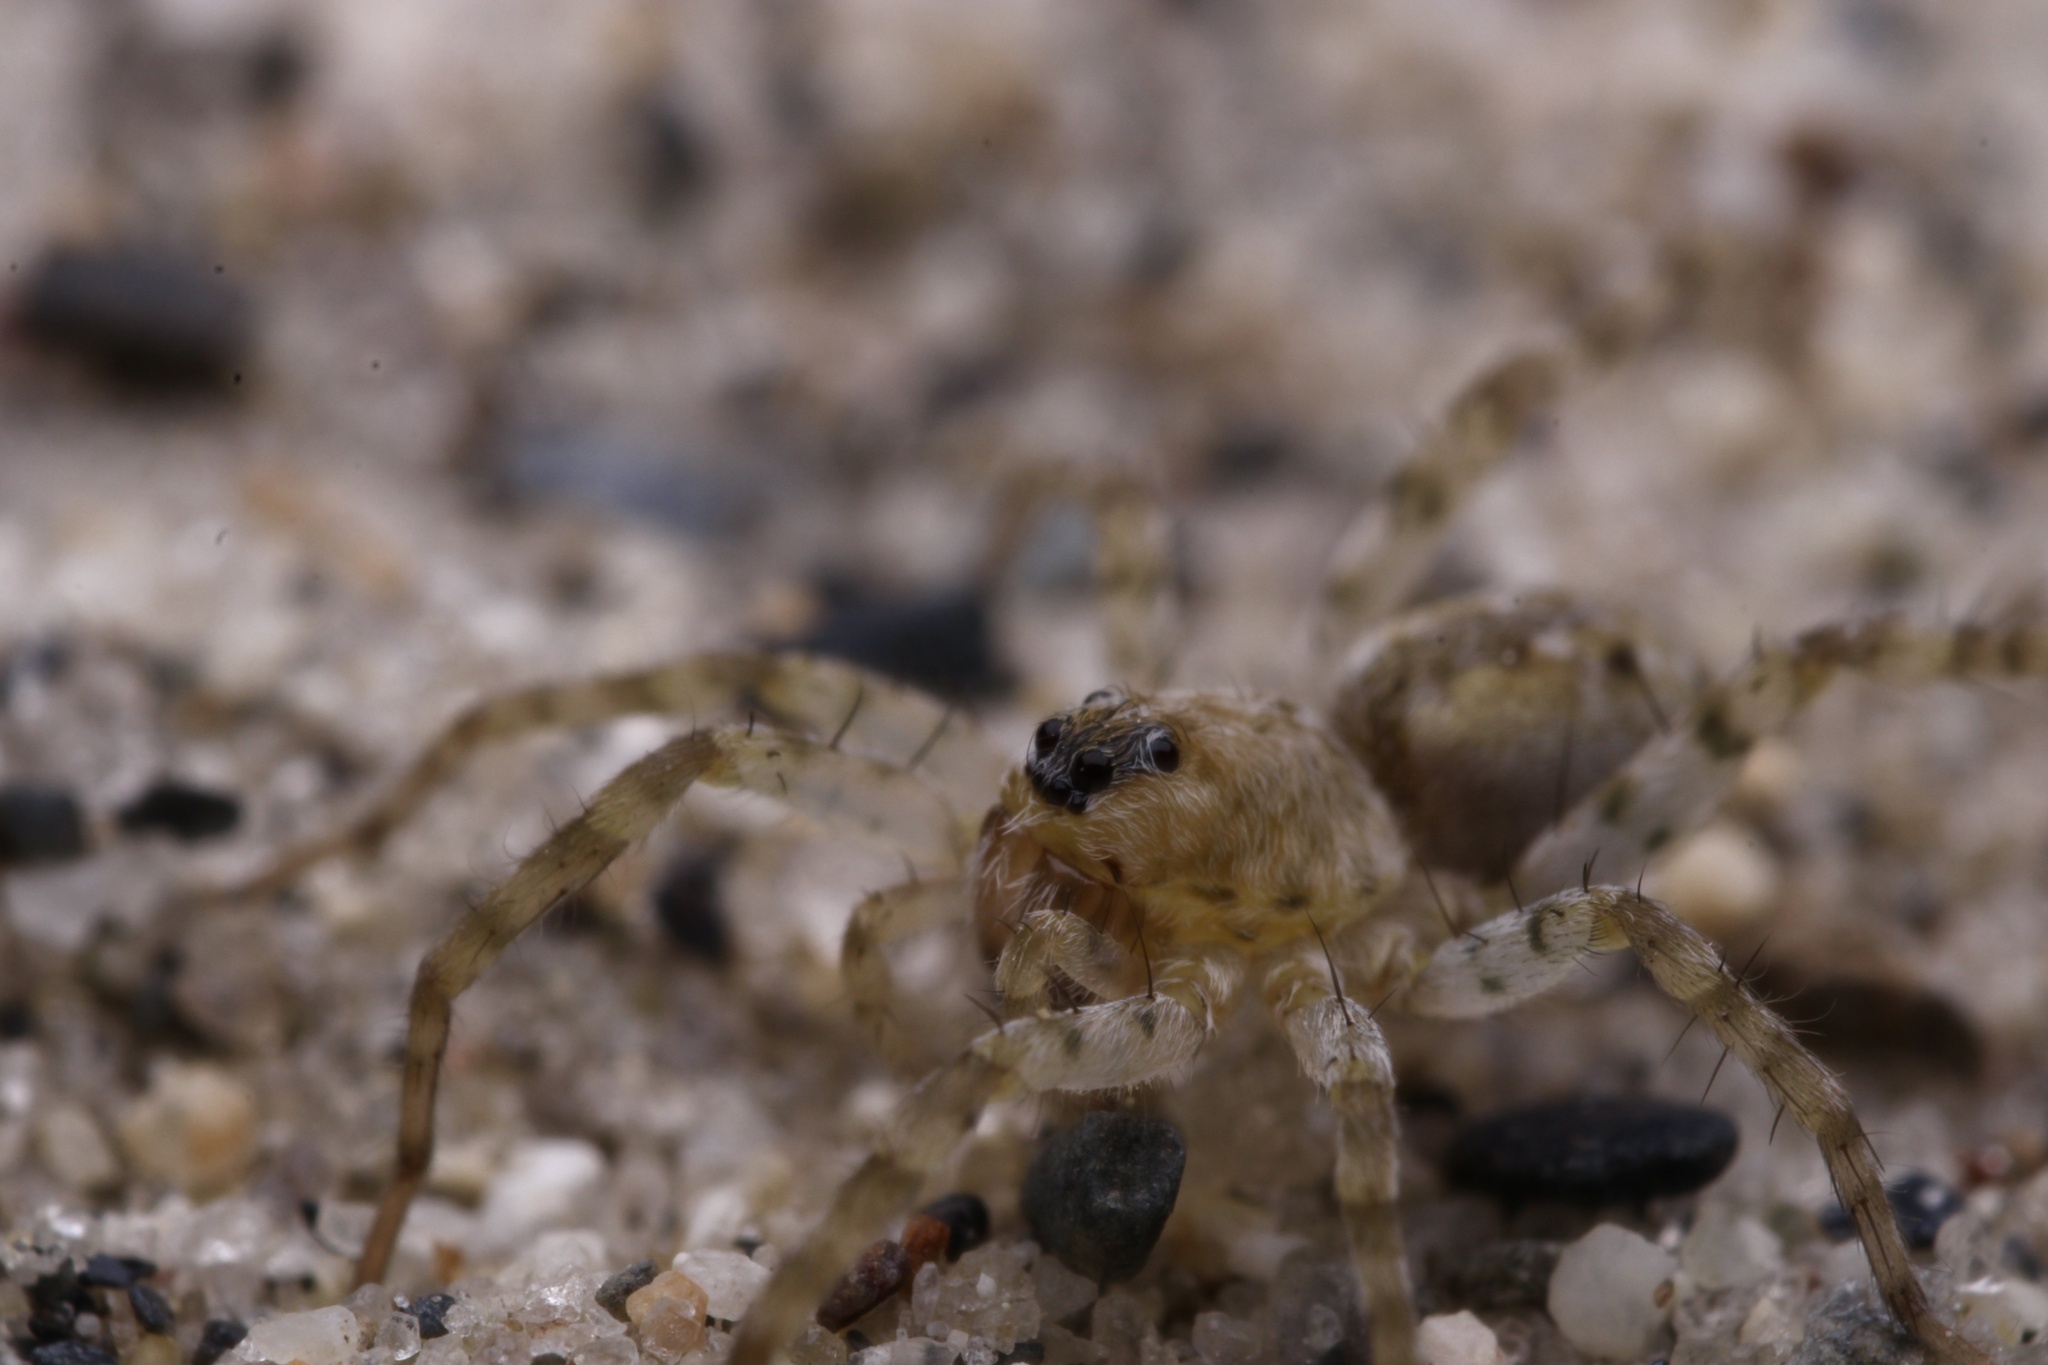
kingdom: Animalia
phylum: Arthropoda
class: Arachnida
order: Araneae
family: Lycosidae
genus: Arctosa
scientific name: Arctosa littoralis
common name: Wolf spiders
